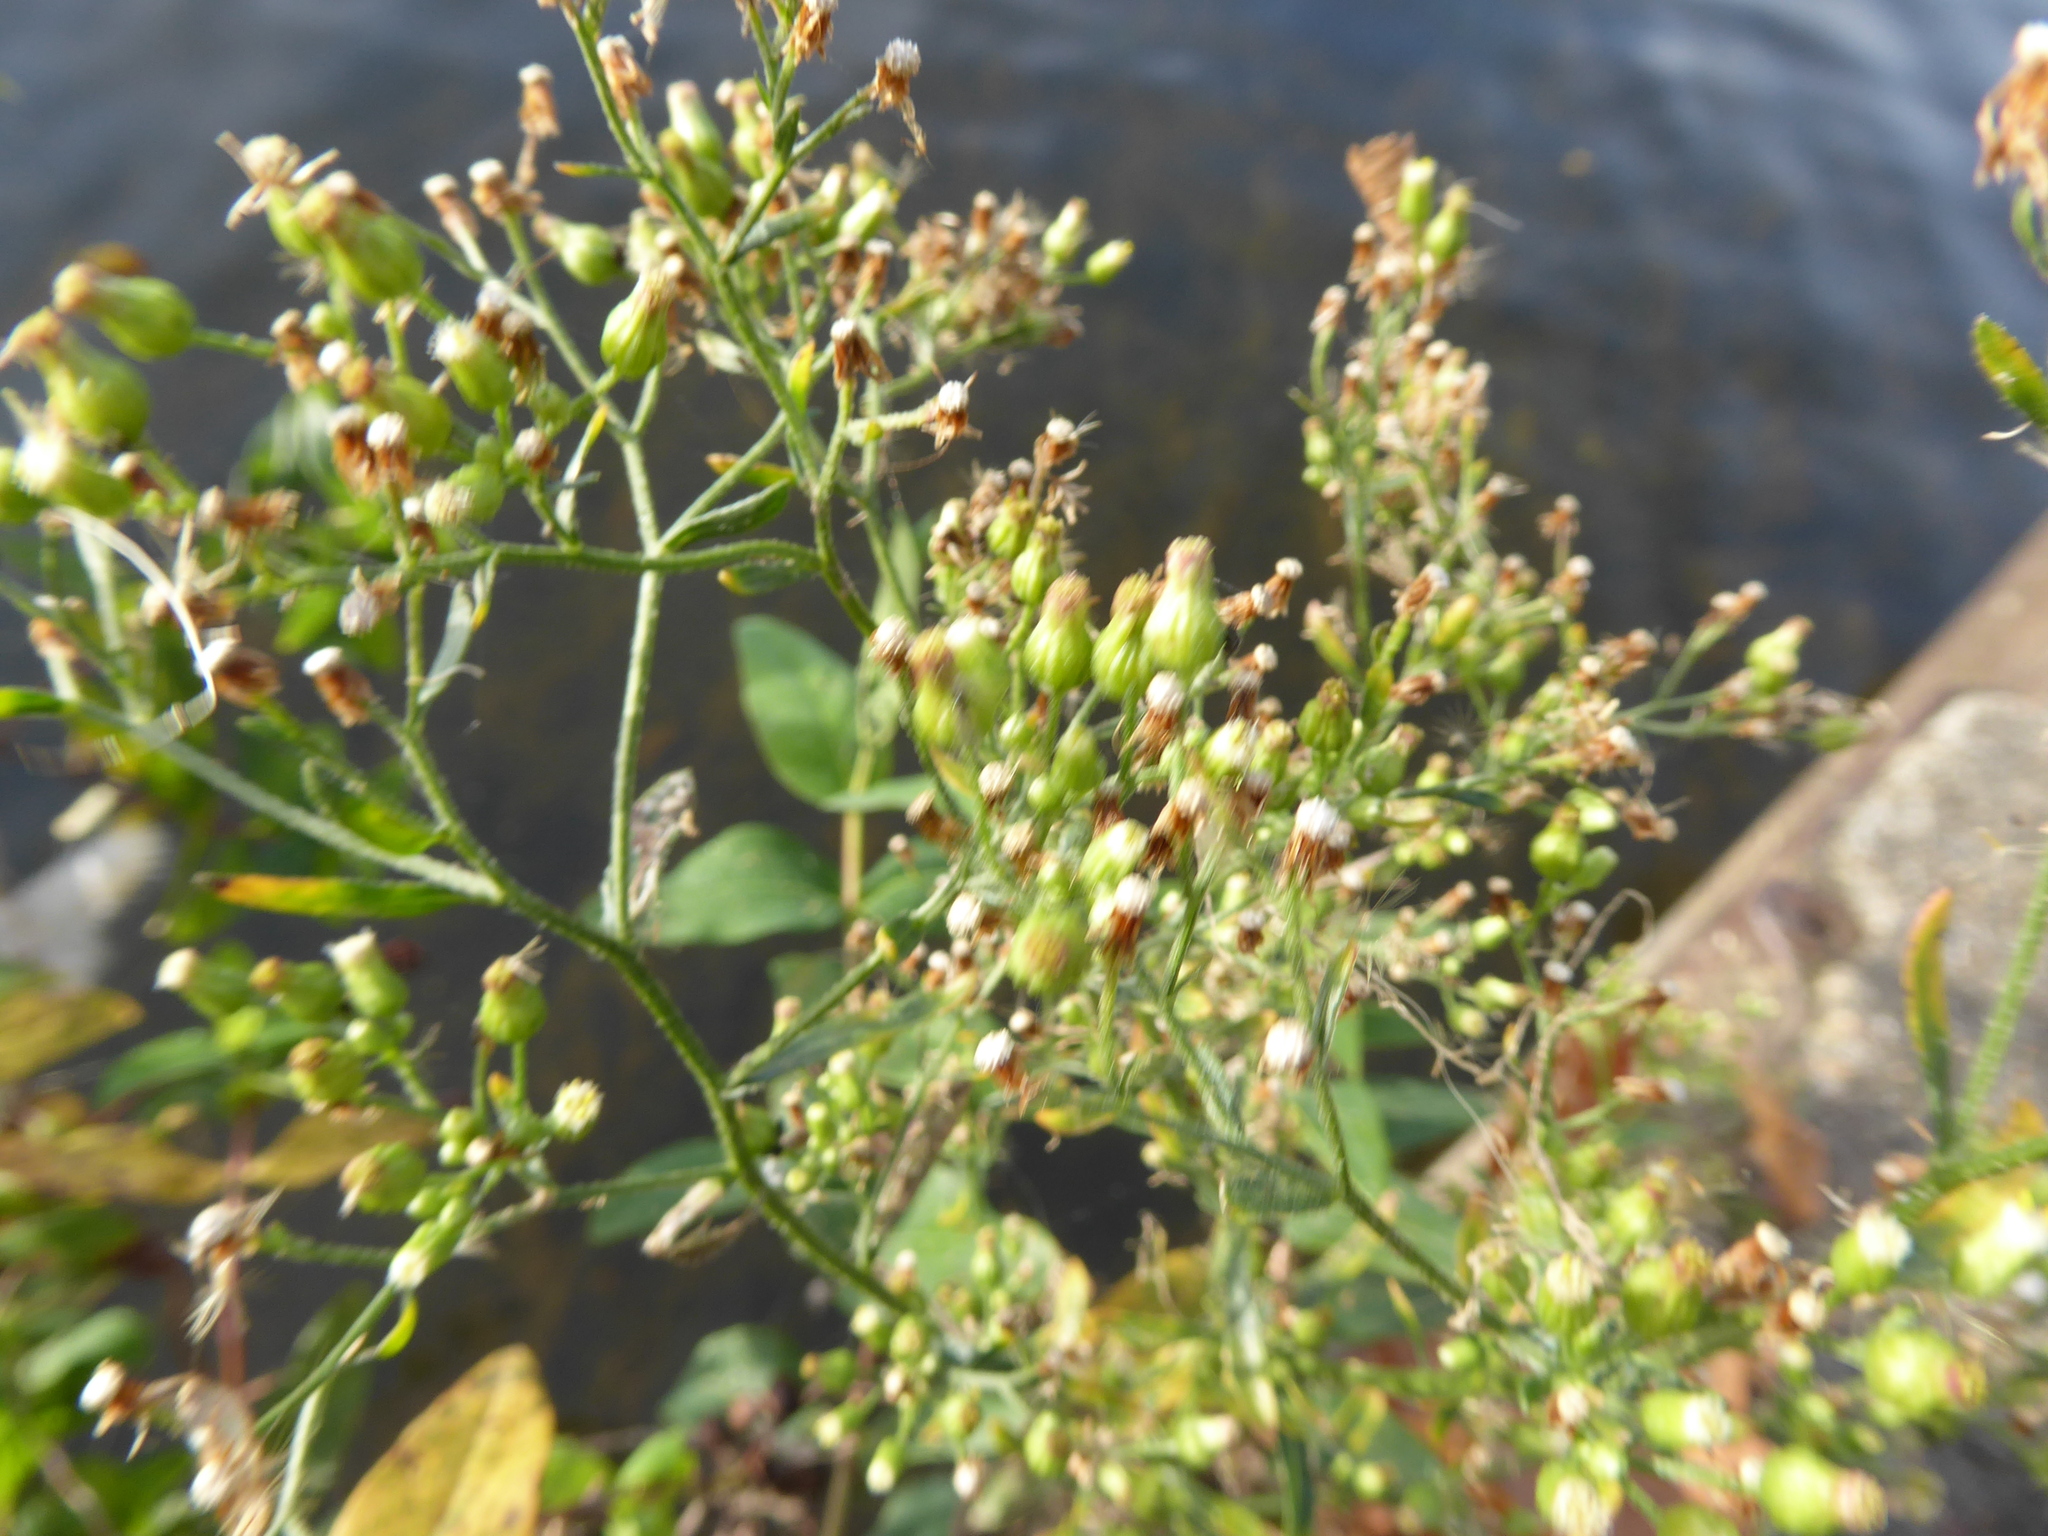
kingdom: Plantae
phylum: Tracheophyta
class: Magnoliopsida
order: Asterales
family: Asteraceae
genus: Erigeron
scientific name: Erigeron floribundus
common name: Bilbao fleabane
